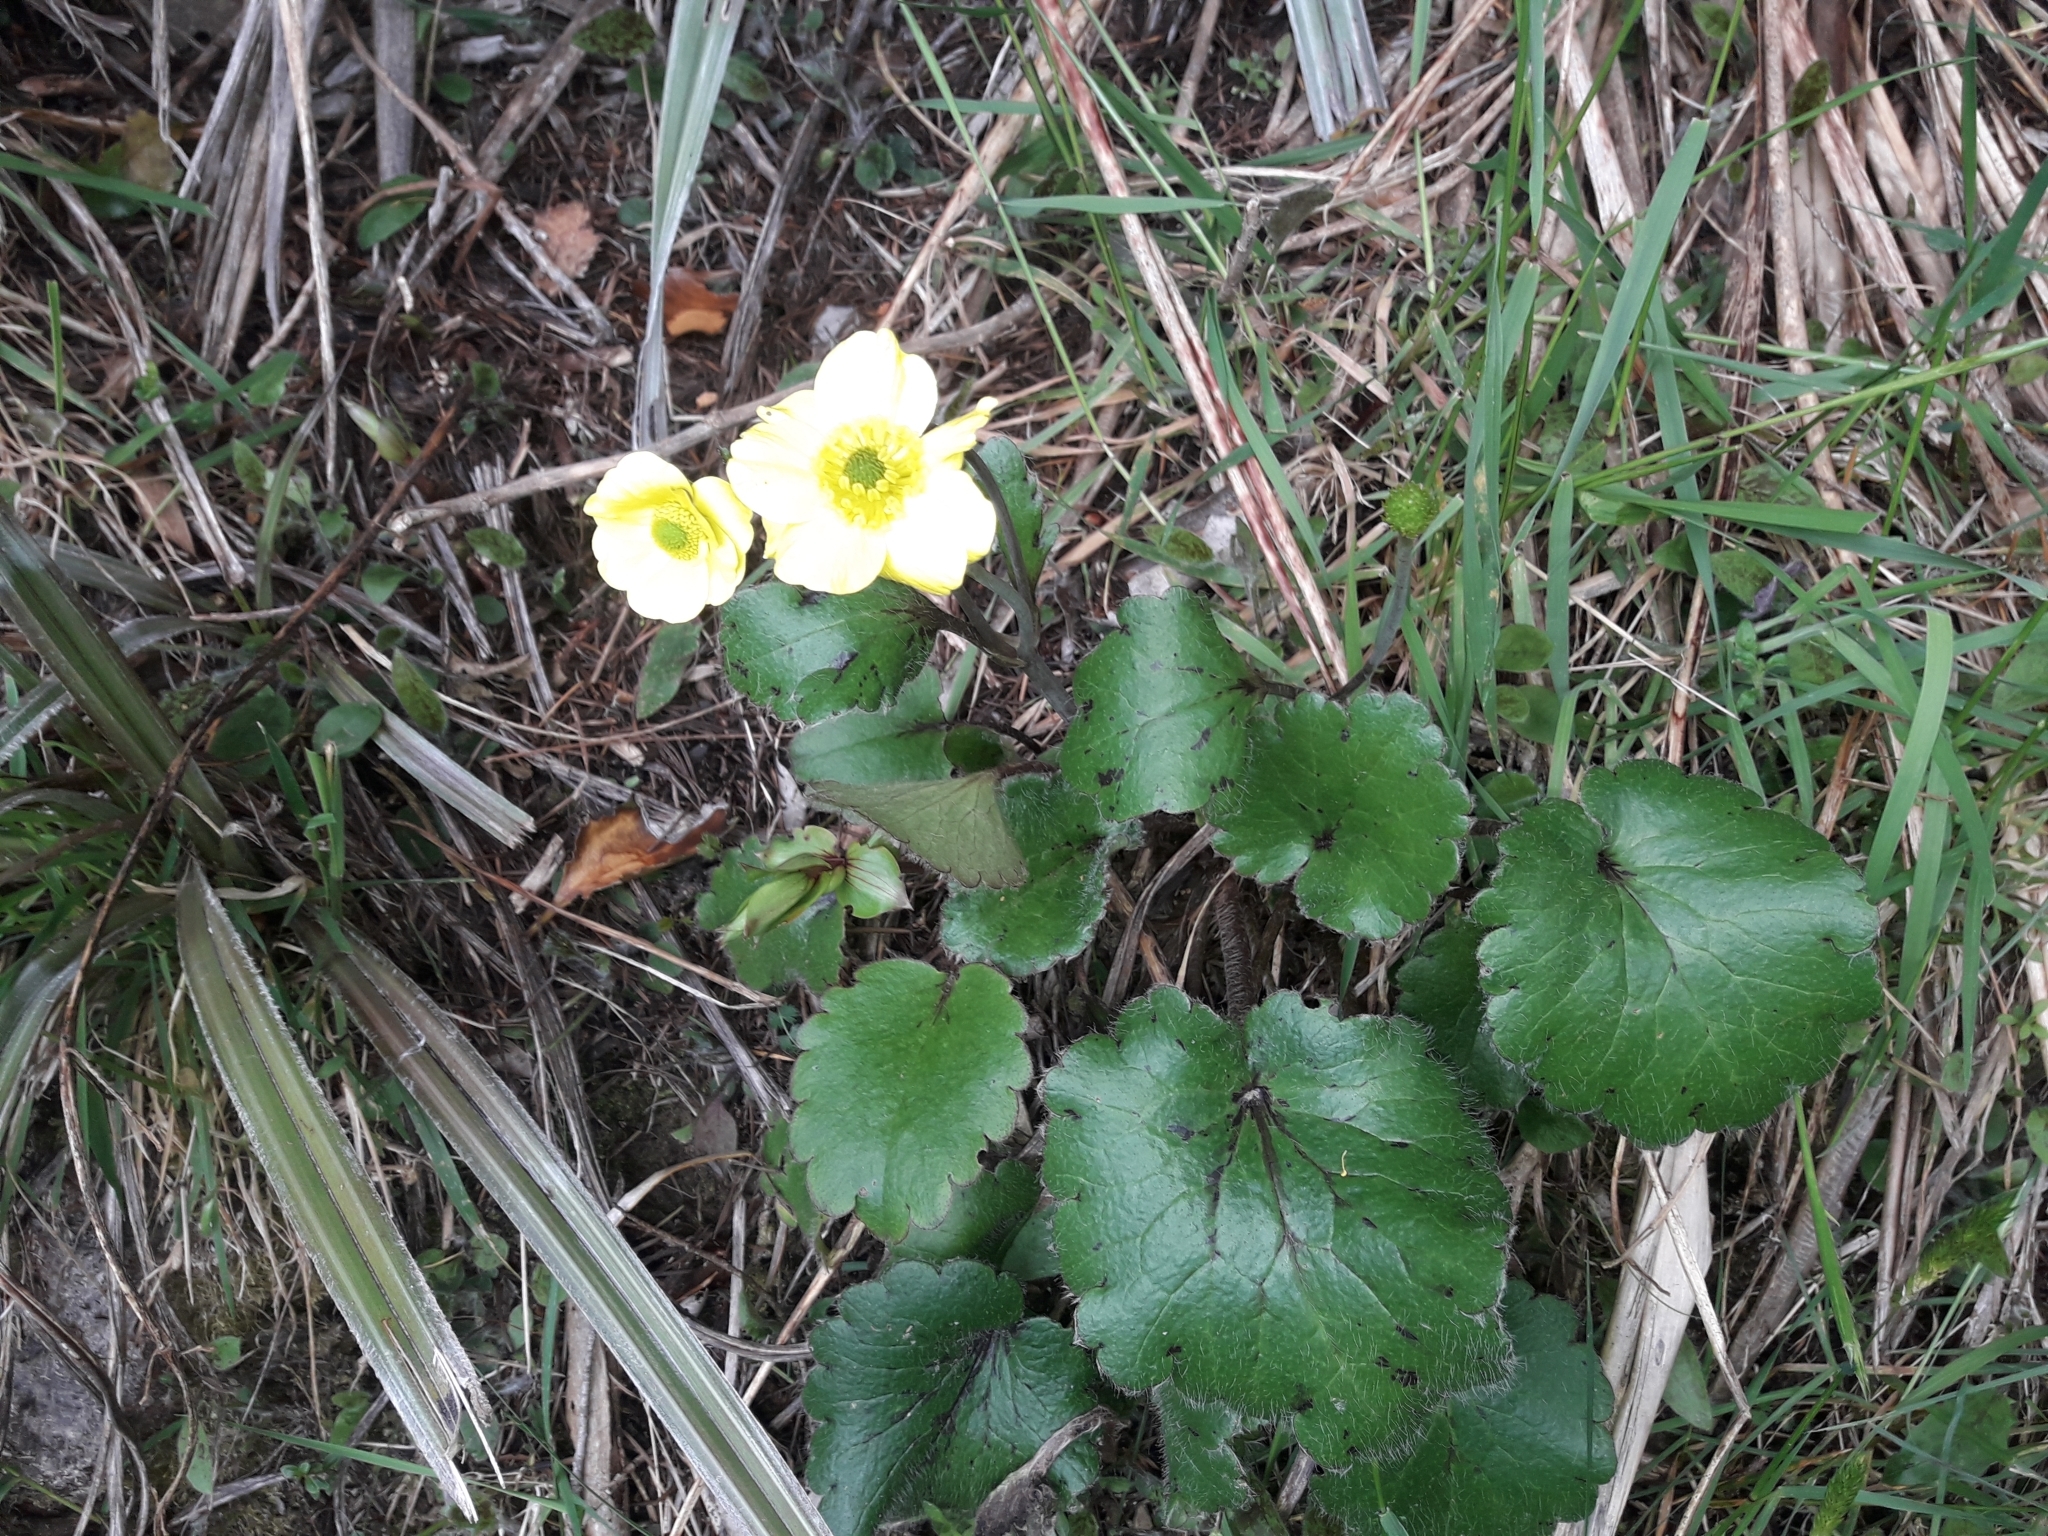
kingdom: Plantae
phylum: Tracheophyta
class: Magnoliopsida
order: Ranunculales
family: Ranunculaceae
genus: Ranunculus
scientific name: Ranunculus insignis
